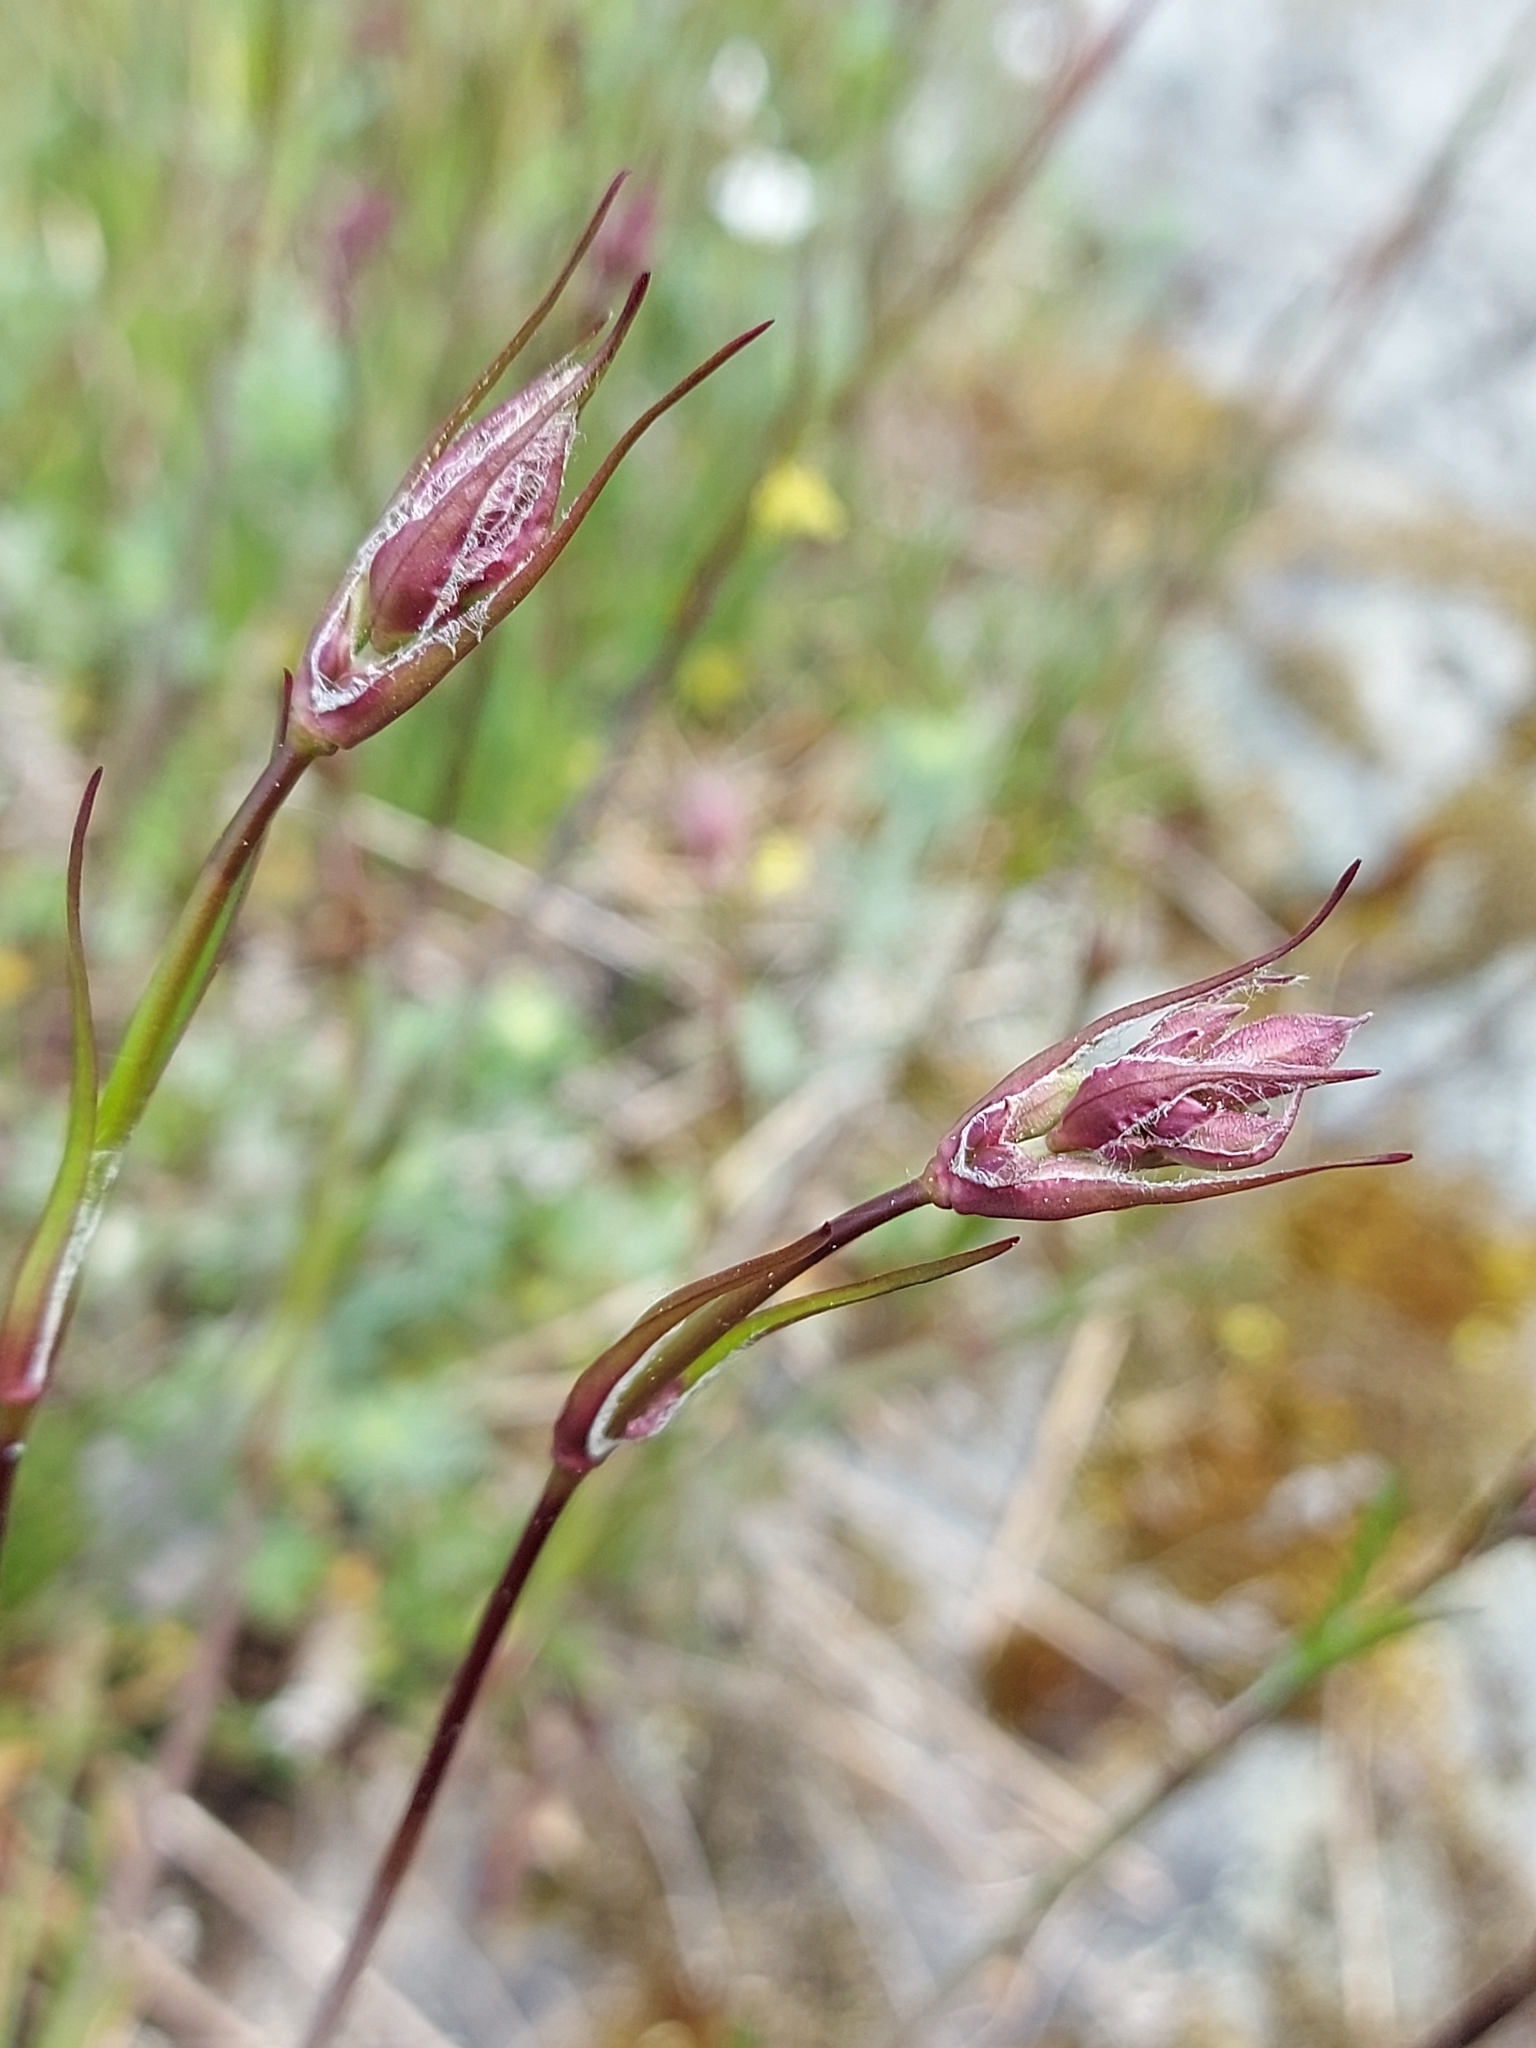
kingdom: Plantae
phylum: Tracheophyta
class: Magnoliopsida
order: Caryophyllales
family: Caryophyllaceae
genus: Viscaria
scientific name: Viscaria vulgaris
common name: Clammy campion
